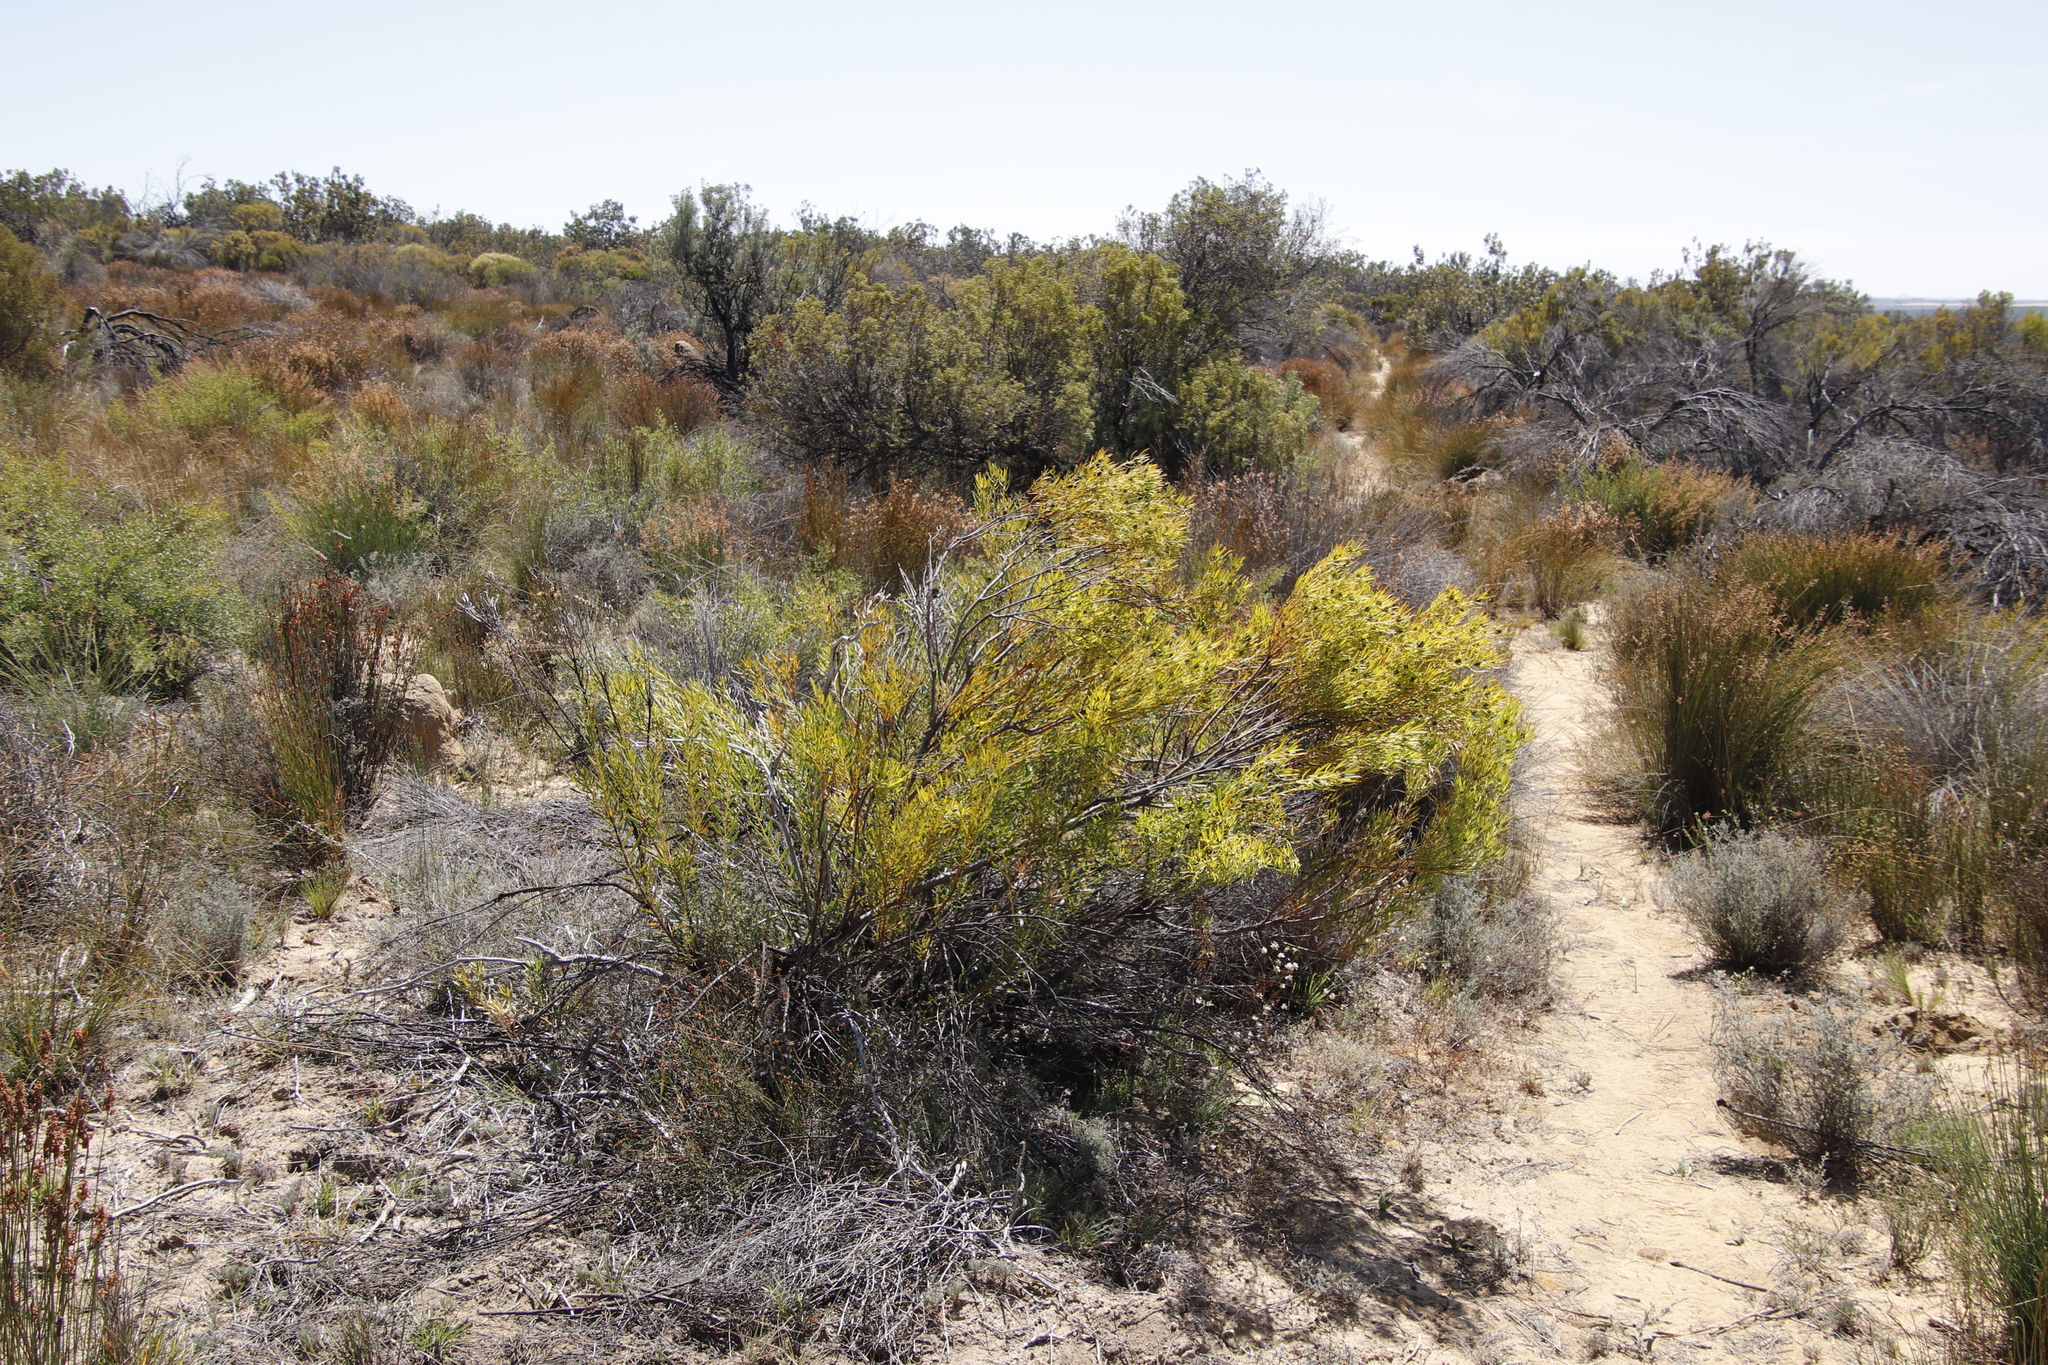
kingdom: Plantae
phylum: Tracheophyta
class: Magnoliopsida
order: Proteales
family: Proteaceae
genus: Leucadendron
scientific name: Leucadendron salignum
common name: Common sunshine conebush
